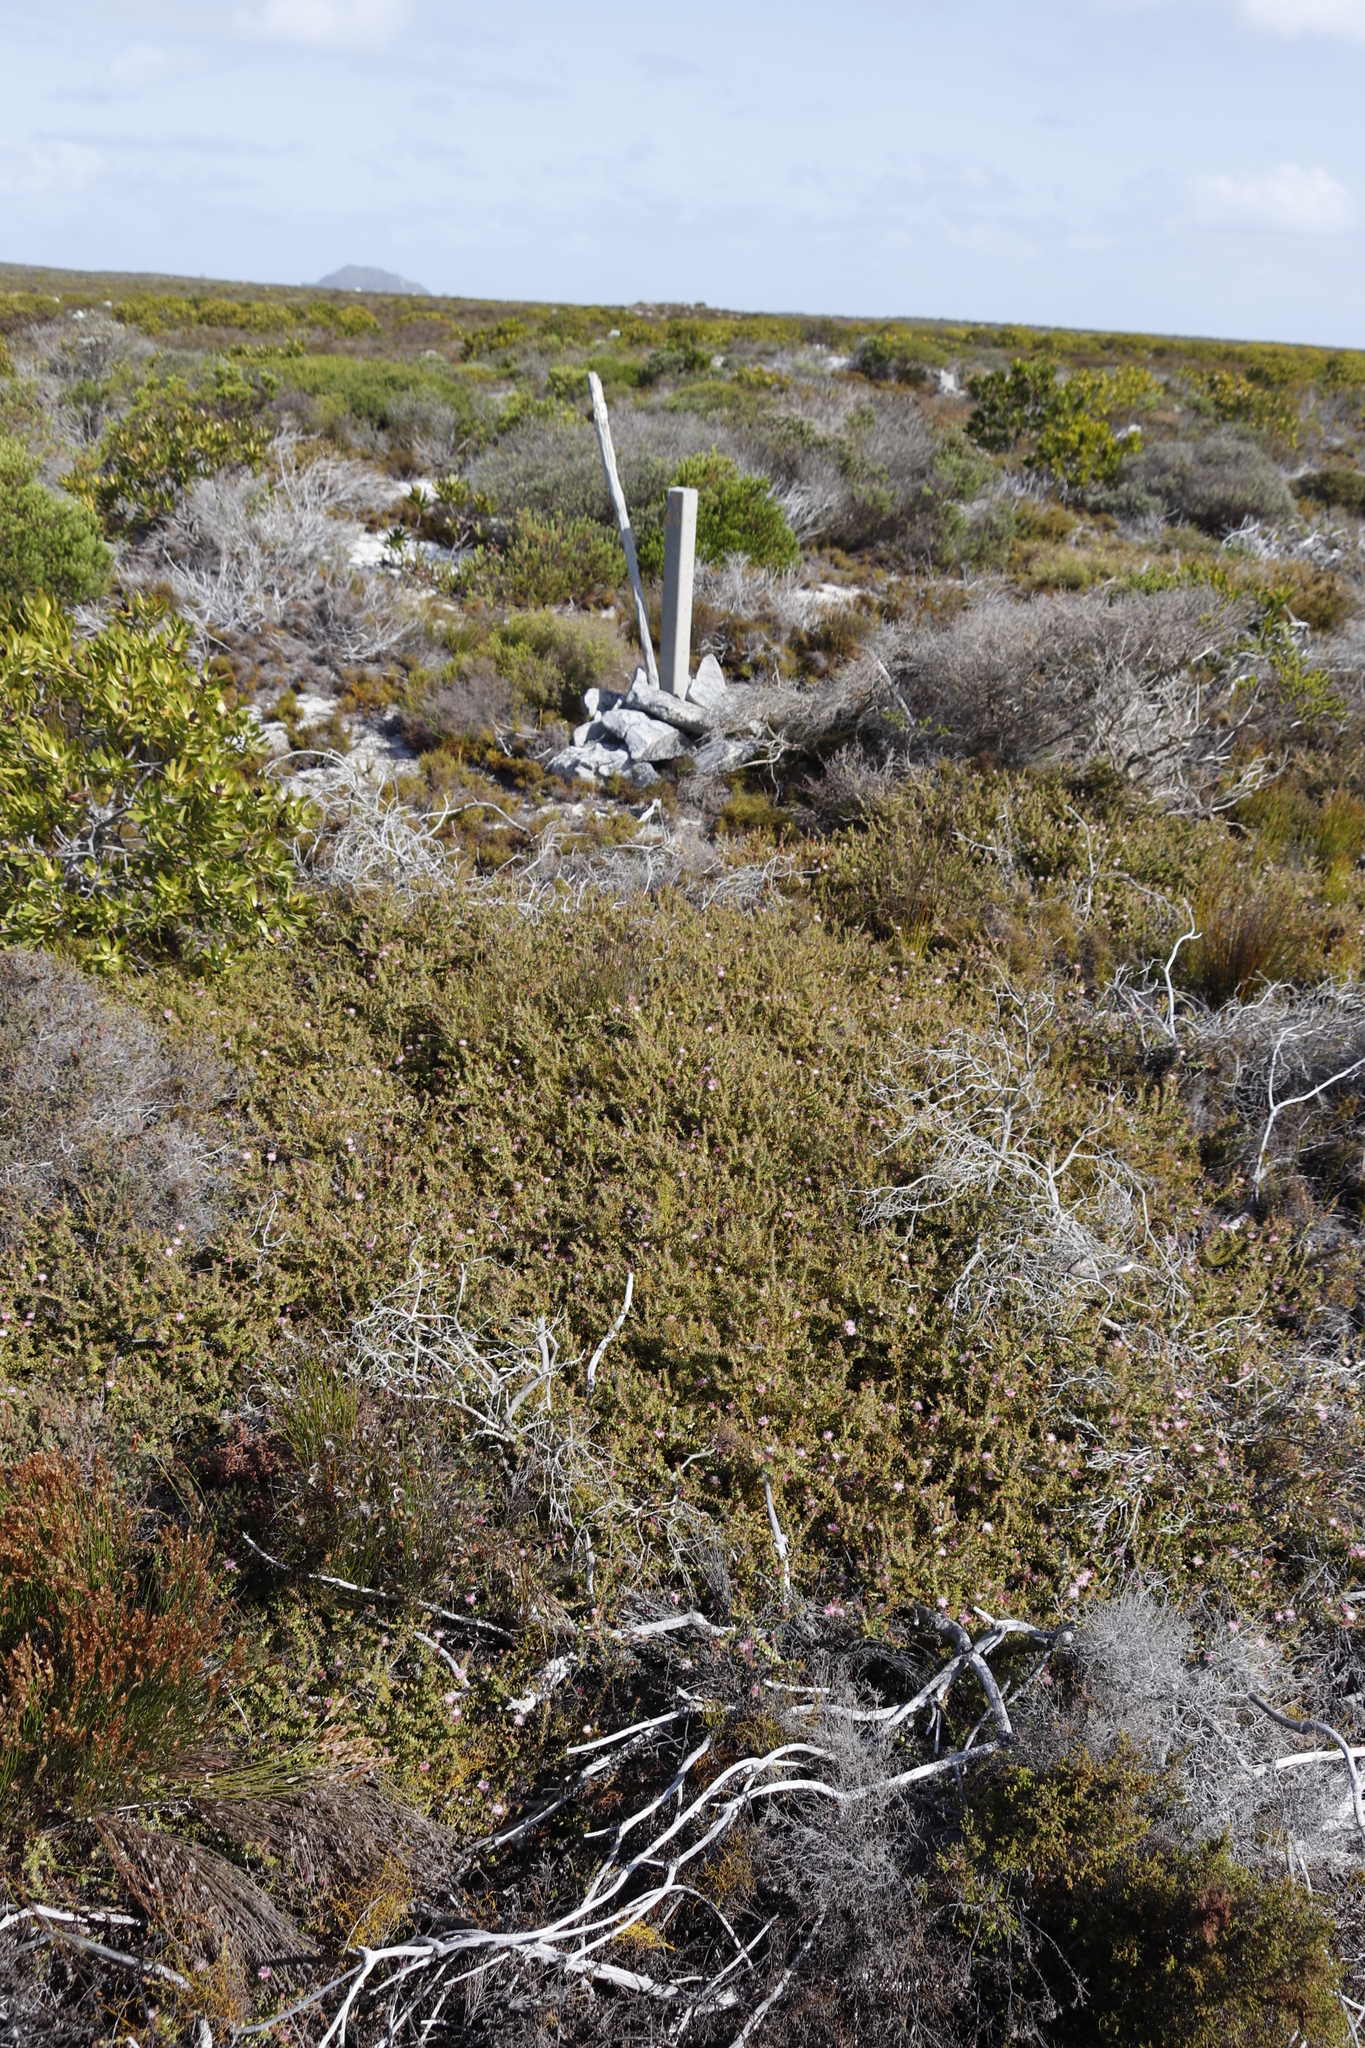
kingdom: Plantae
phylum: Tracheophyta
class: Magnoliopsida
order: Proteales
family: Proteaceae
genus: Diastella
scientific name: Diastella divaricata
